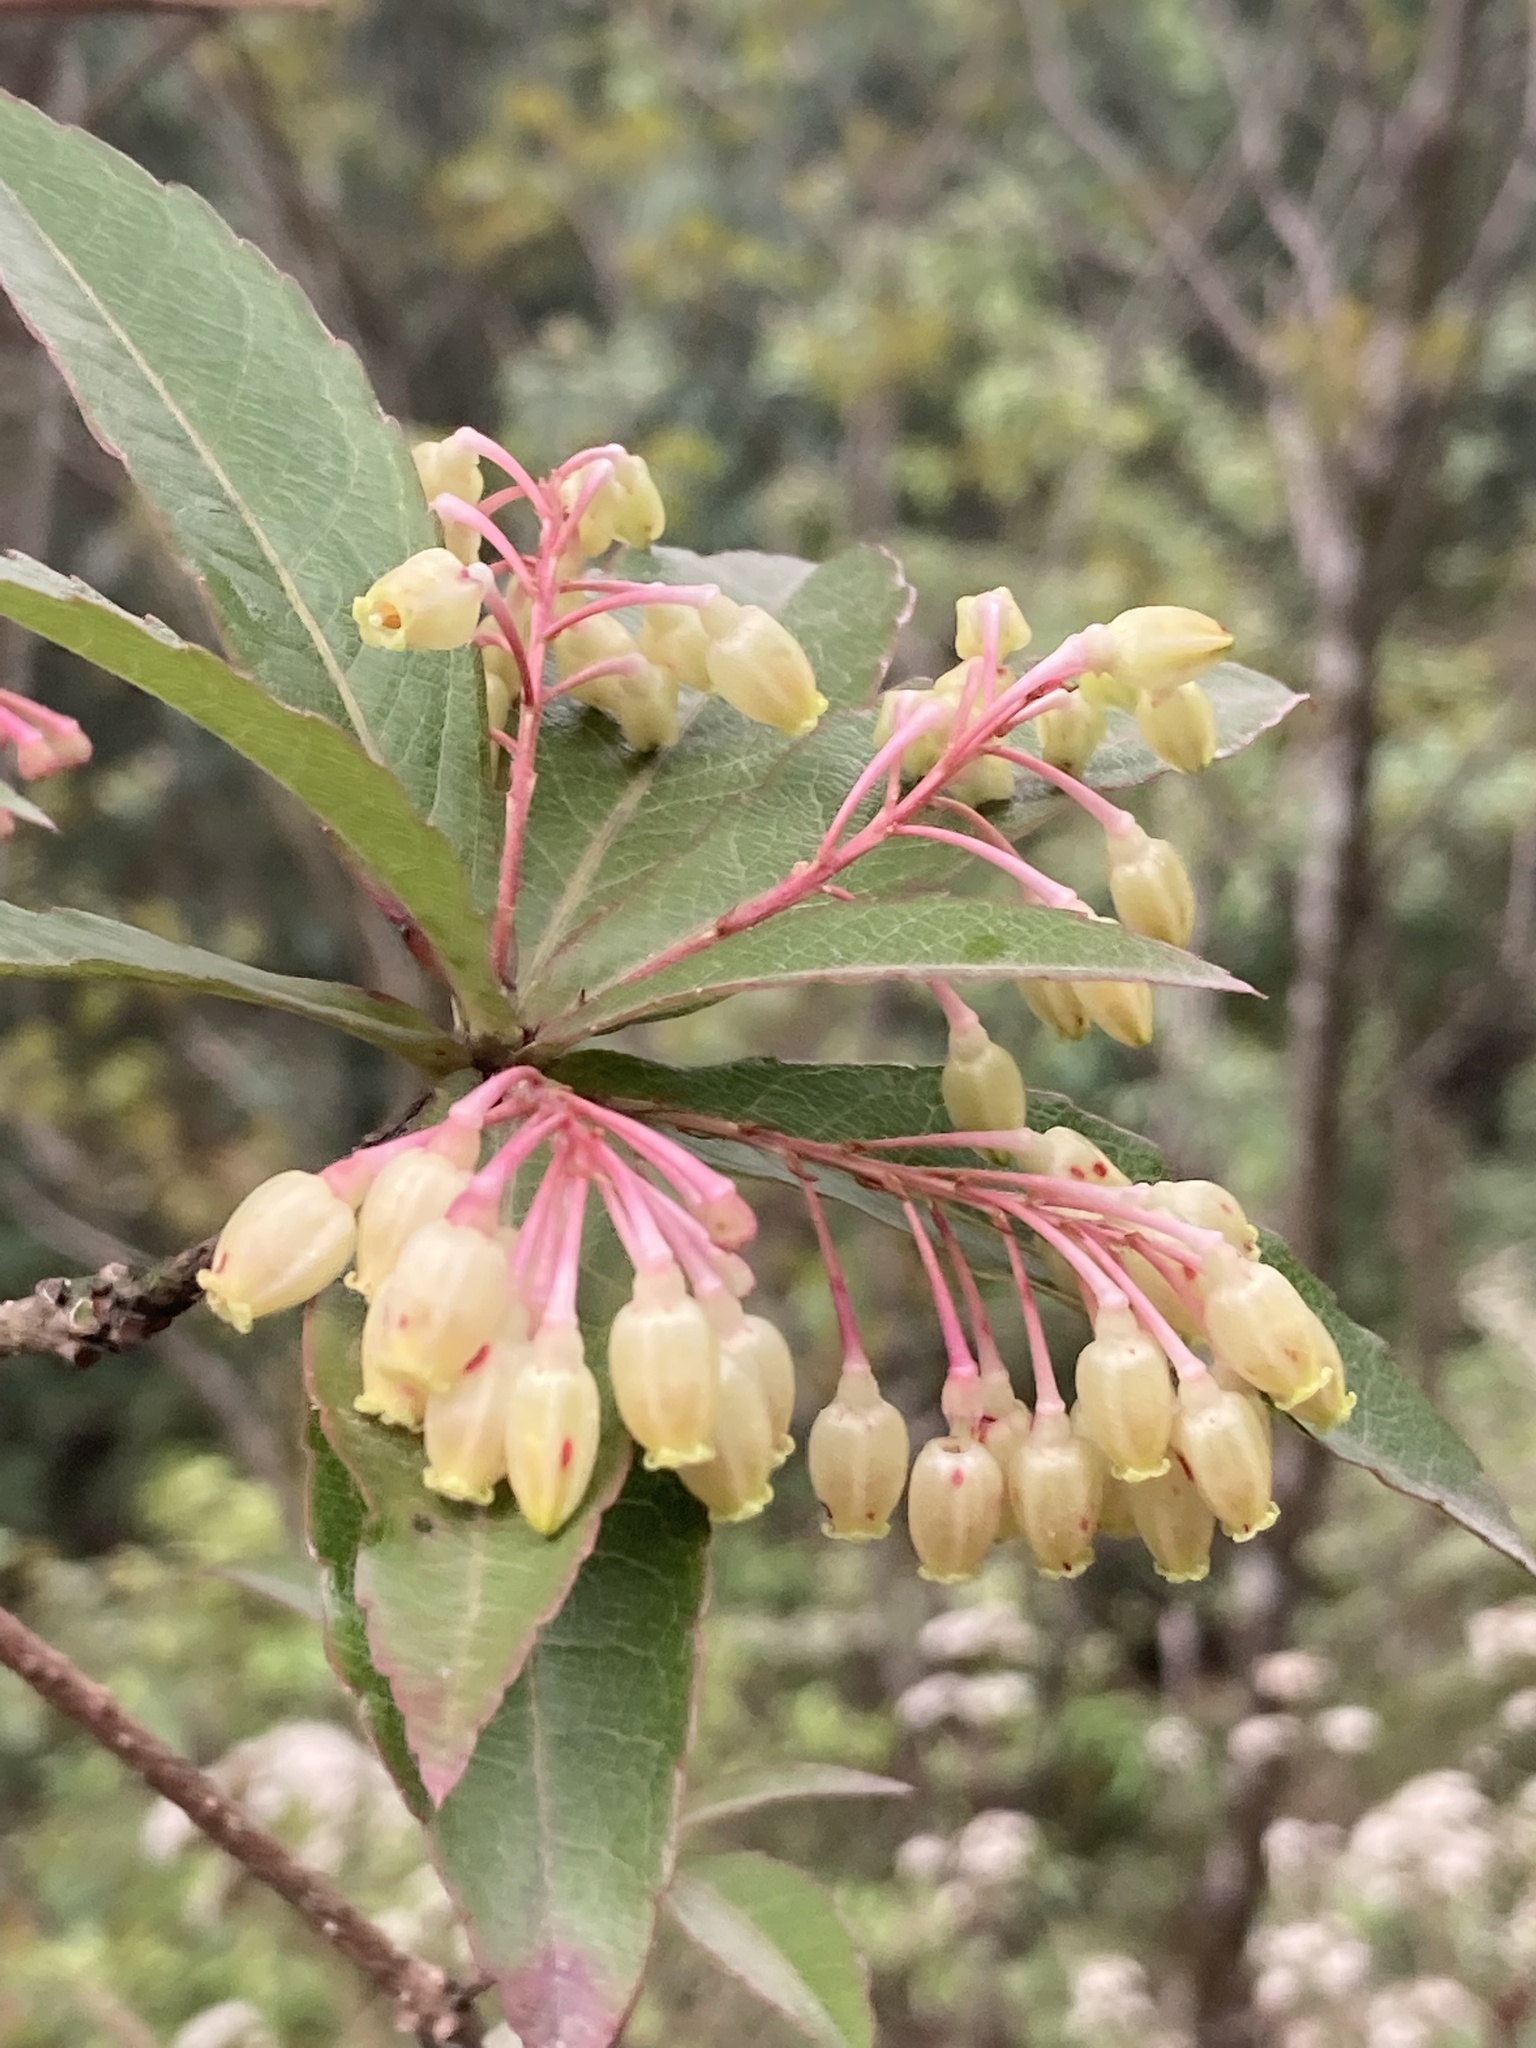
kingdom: Plantae
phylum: Tracheophyta
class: Magnoliopsida
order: Ericales
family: Ericaceae
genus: Vaccinium
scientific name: Vaccinium vacciniaceum
